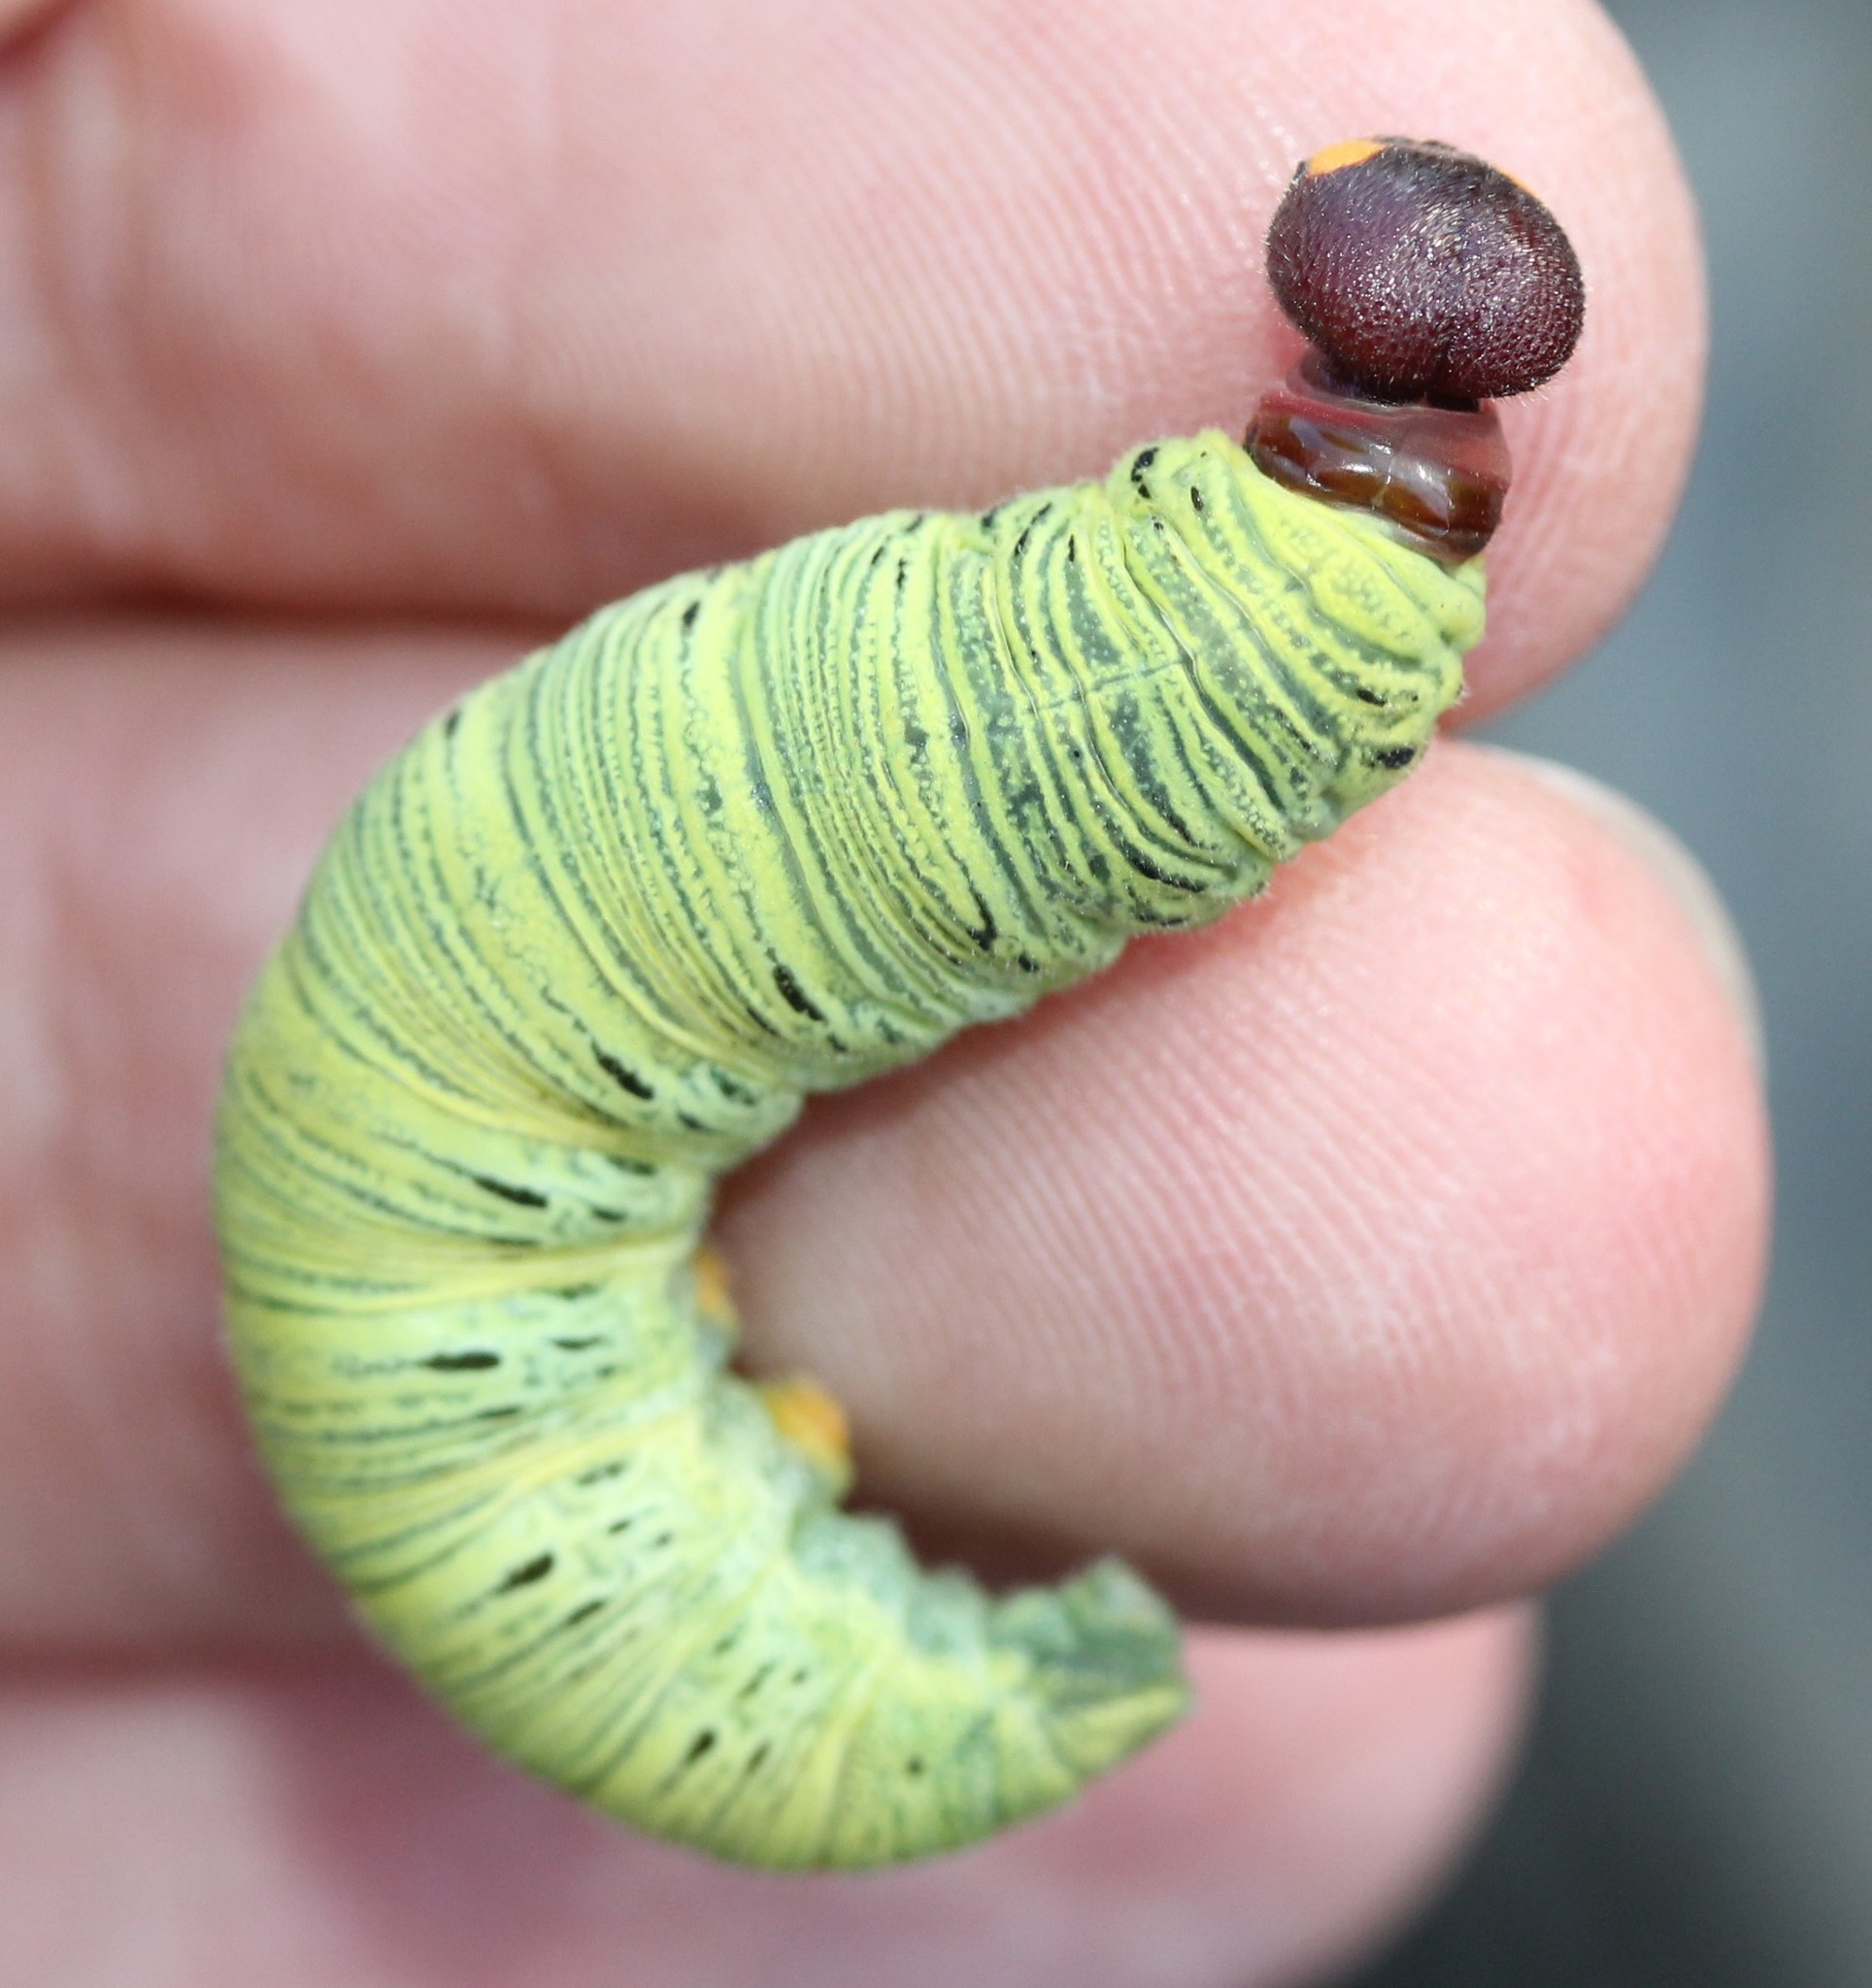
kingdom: Animalia
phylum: Arthropoda
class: Insecta
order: Lepidoptera
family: Hesperiidae
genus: Epargyreus
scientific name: Epargyreus clarus
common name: Silver-spotted skipper
